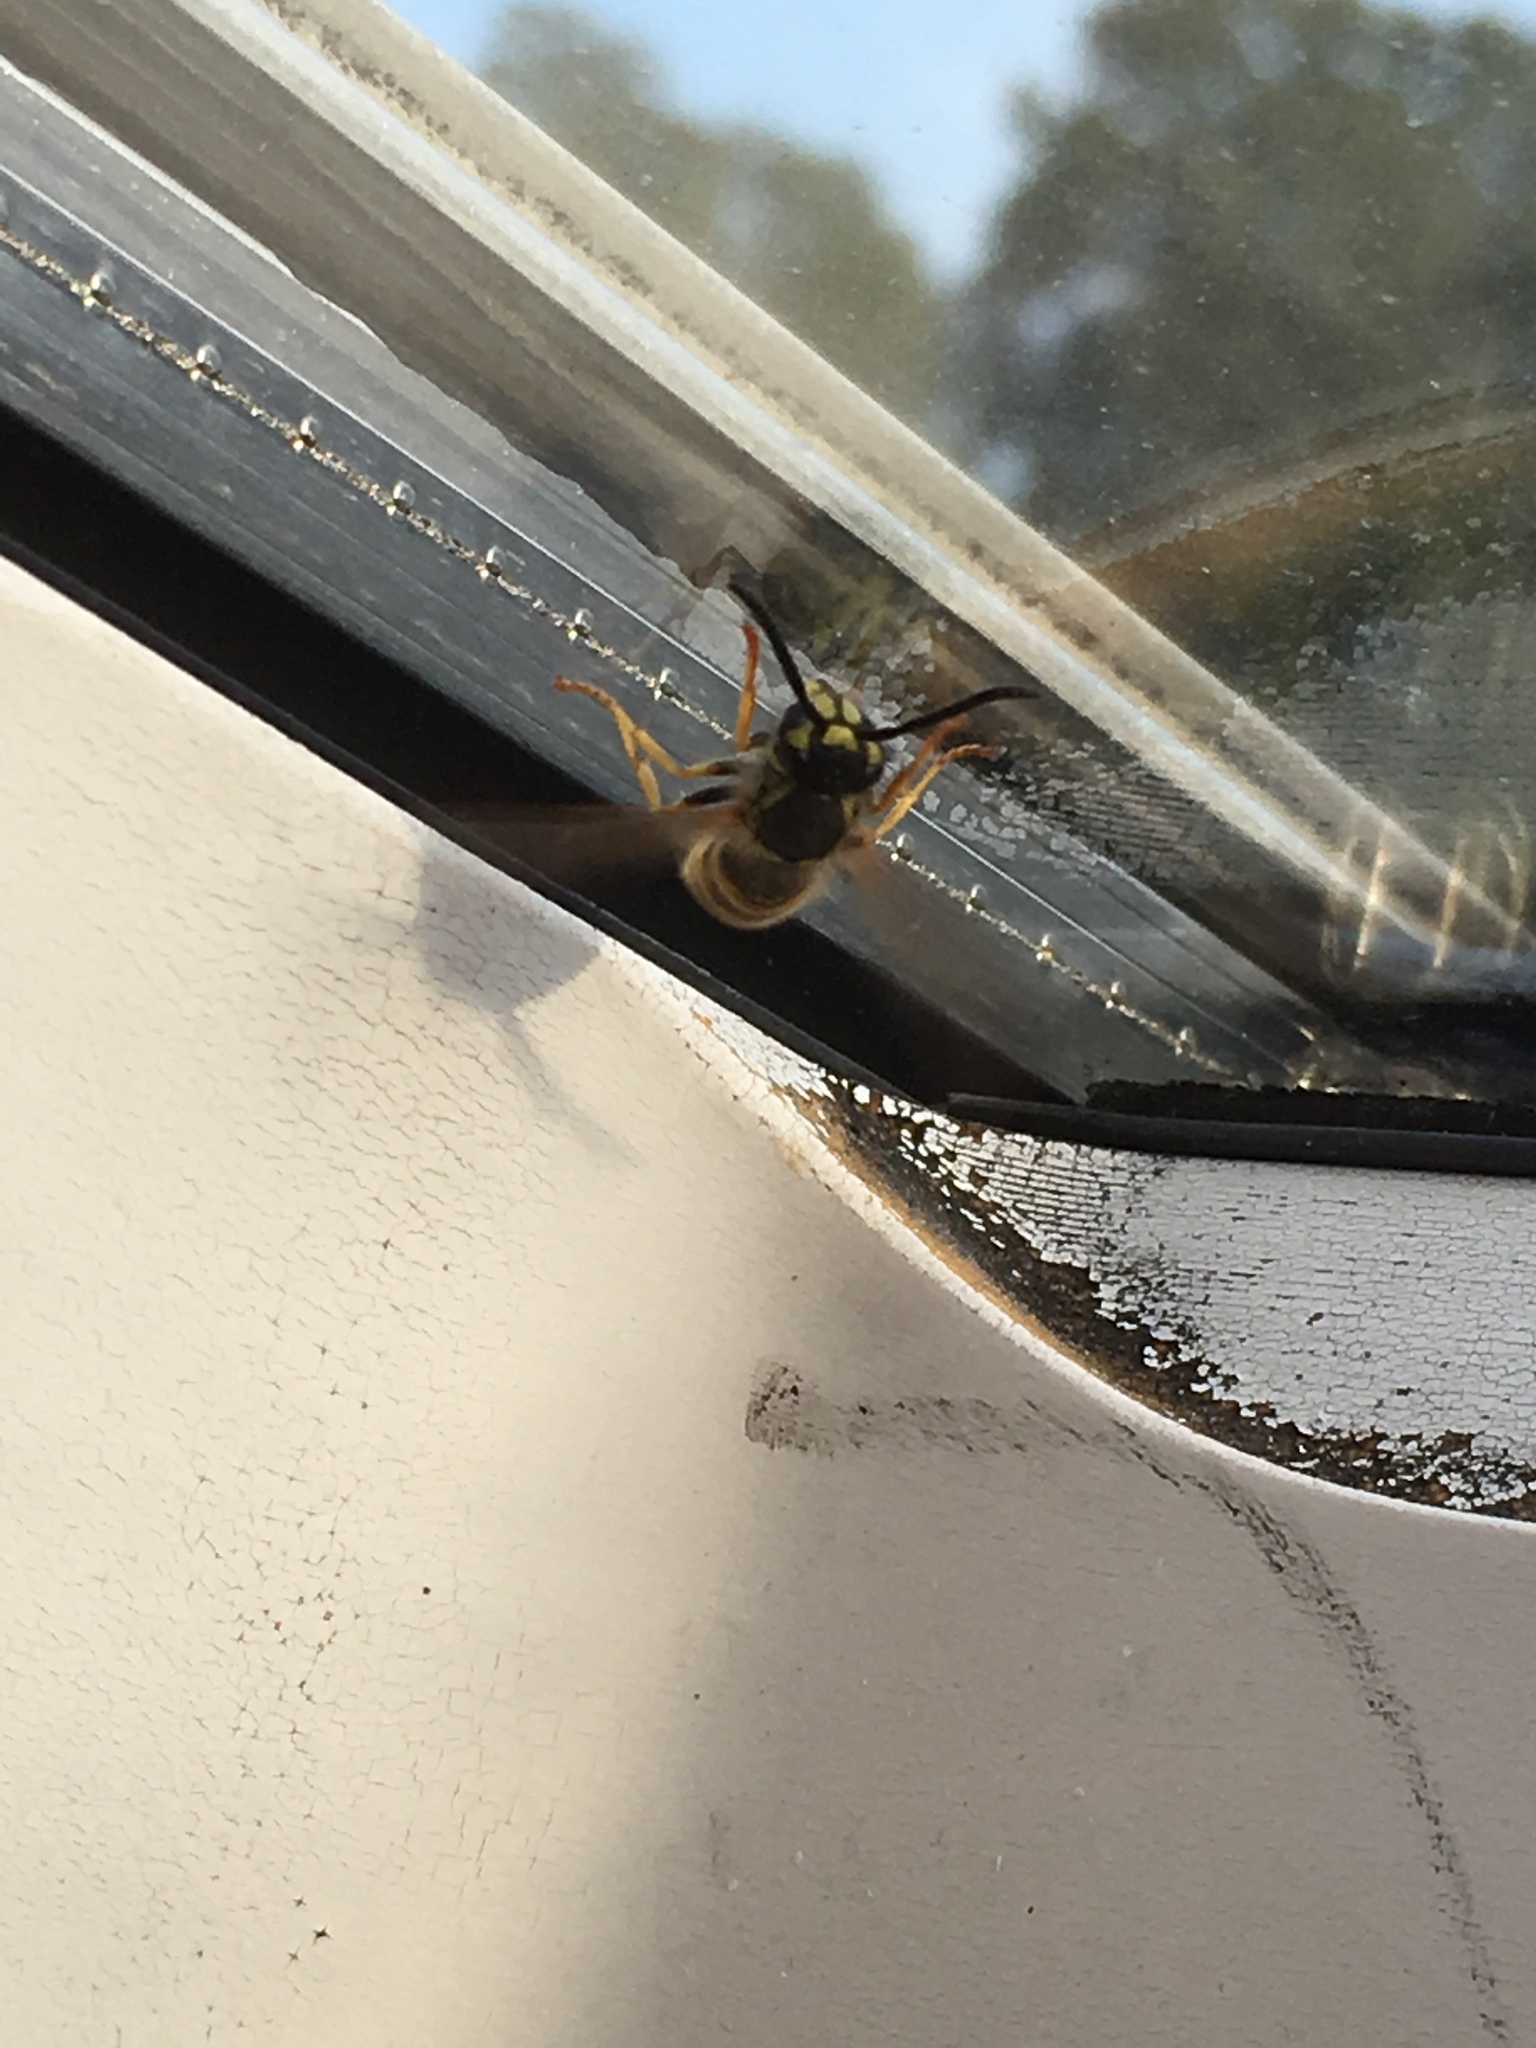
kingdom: Animalia
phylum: Arthropoda
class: Insecta
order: Hymenoptera
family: Vespidae
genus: Vespula
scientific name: Vespula vulgaris
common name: Common wasp
